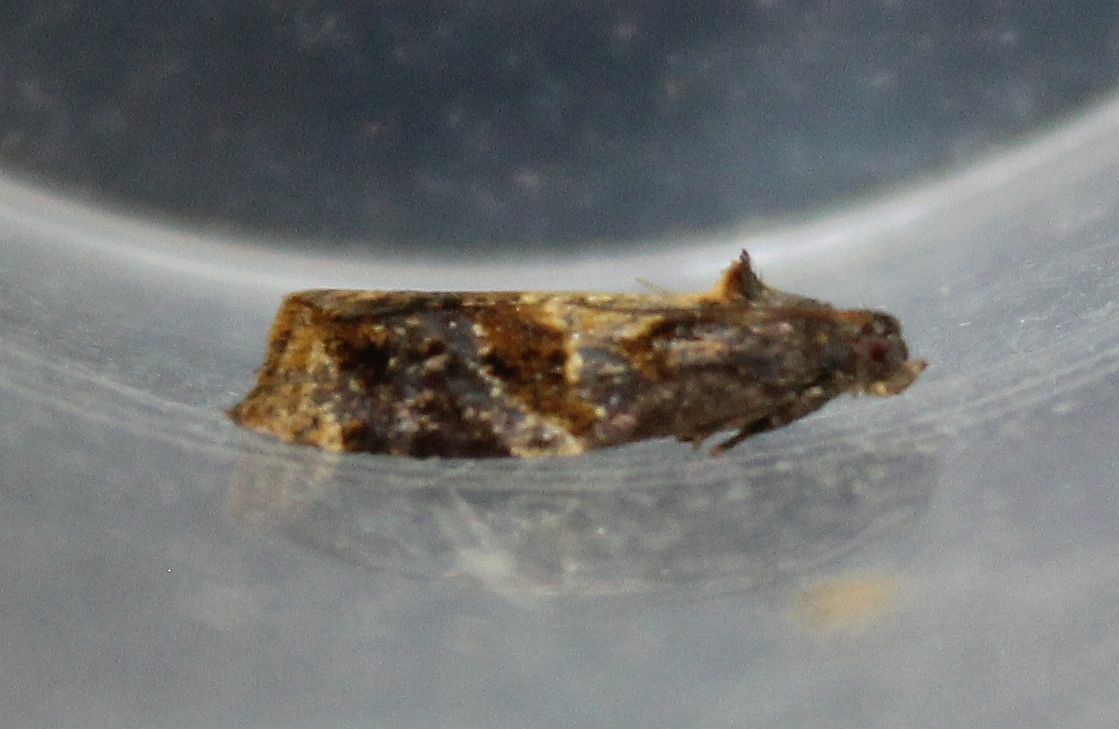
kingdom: Animalia
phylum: Arthropoda
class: Insecta
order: Lepidoptera
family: Tortricidae
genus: Ditula
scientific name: Ditula angustiorana
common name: Red-barred tortrix
